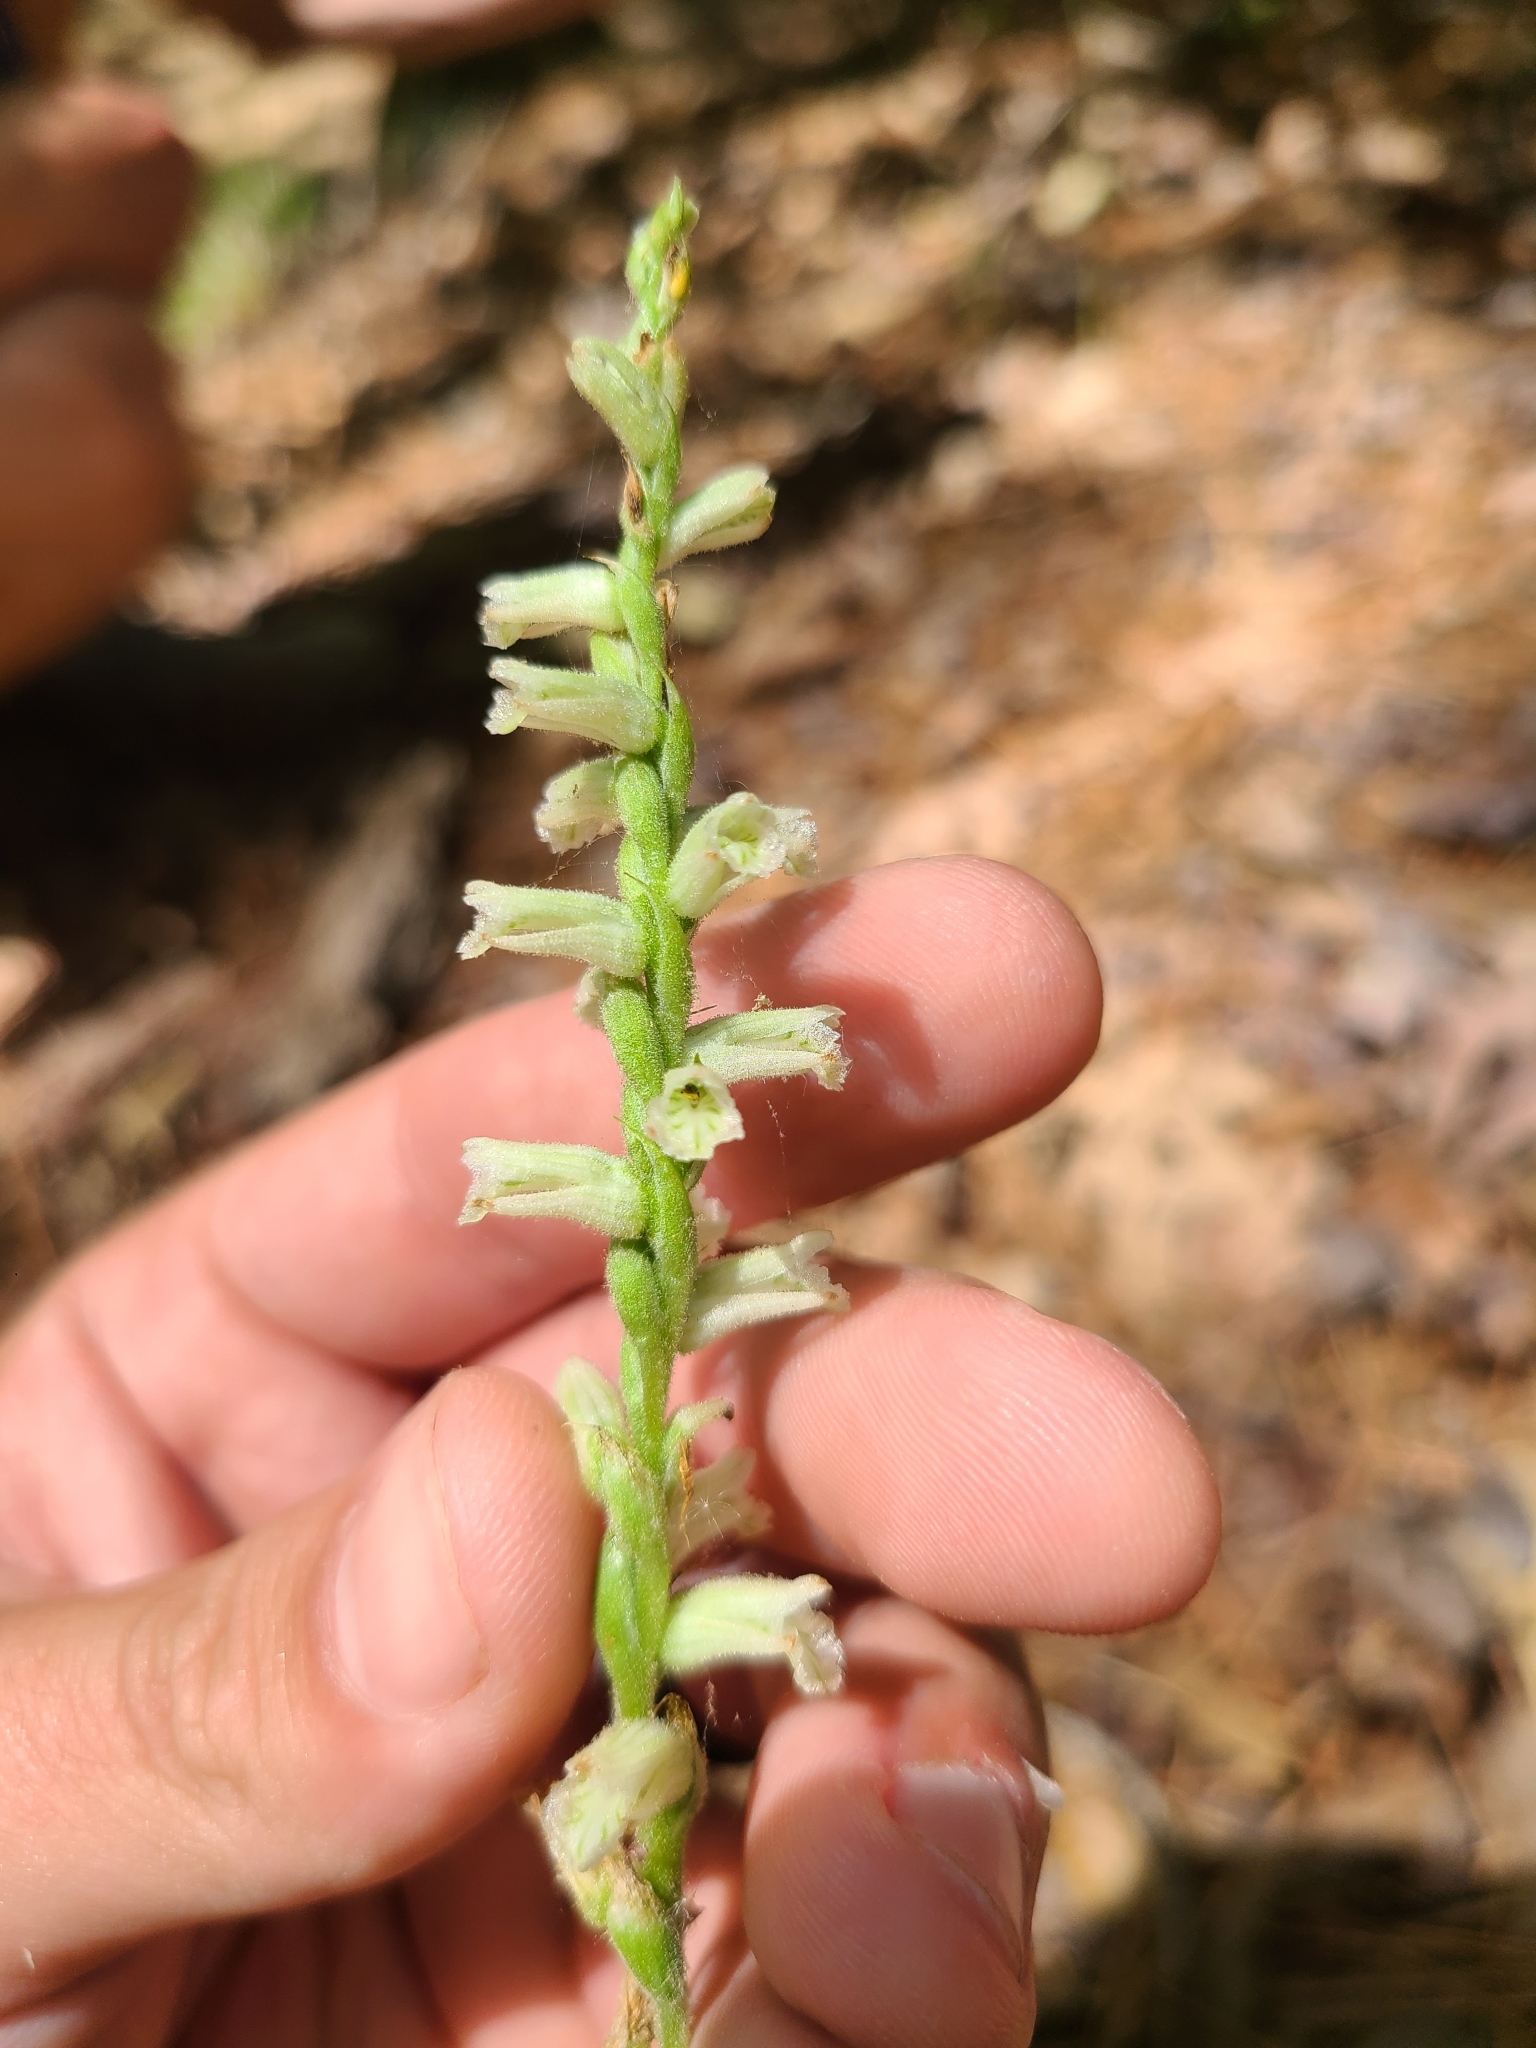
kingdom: Plantae
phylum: Tracheophyta
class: Liliopsida
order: Asparagales
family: Orchidaceae
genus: Spiranthes
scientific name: Spiranthes sylvatica
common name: Woodland lady's tresses
